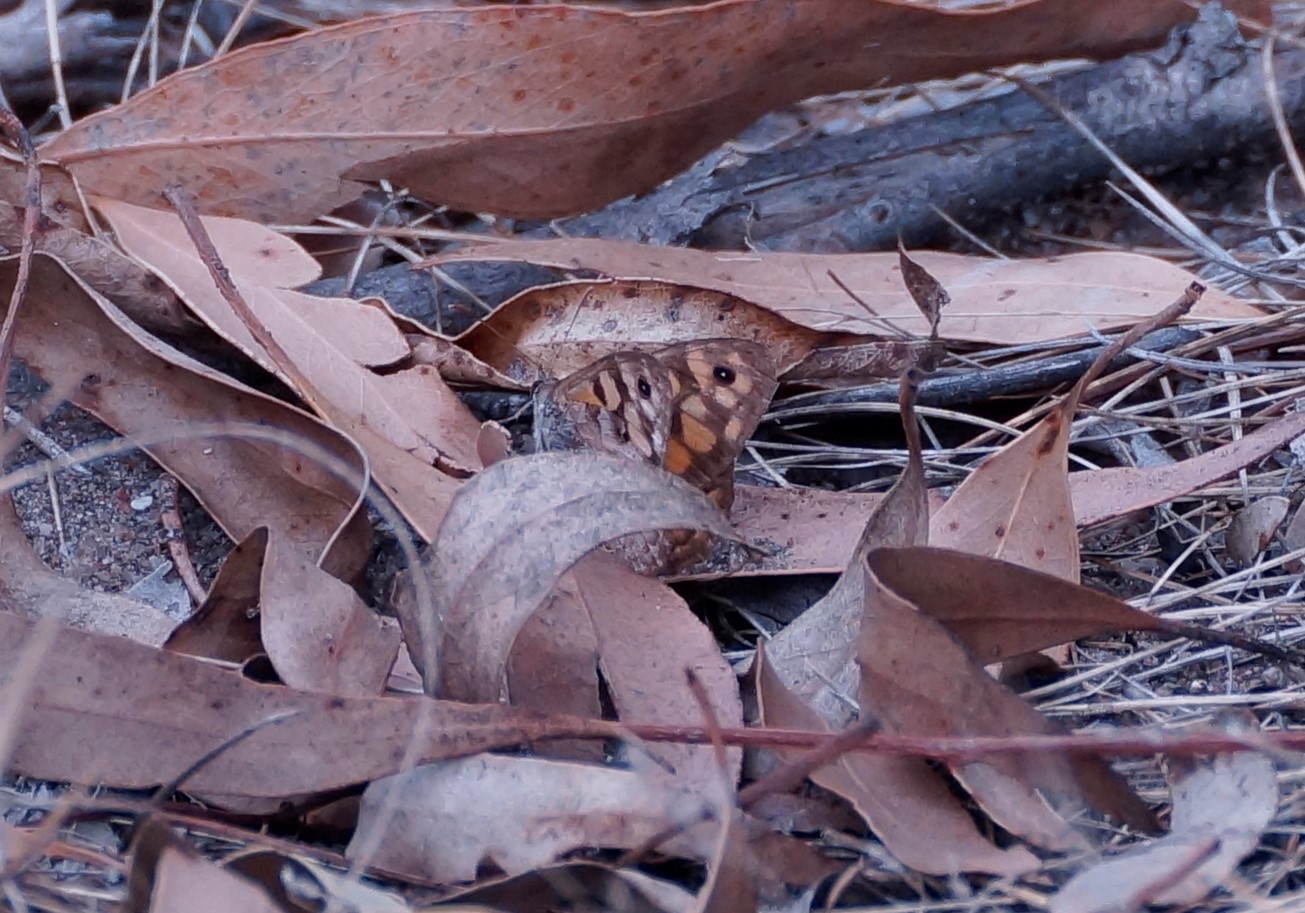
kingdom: Animalia
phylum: Arthropoda
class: Insecta
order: Lepidoptera
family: Nymphalidae
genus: Geitoneura
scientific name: Geitoneura klugii
